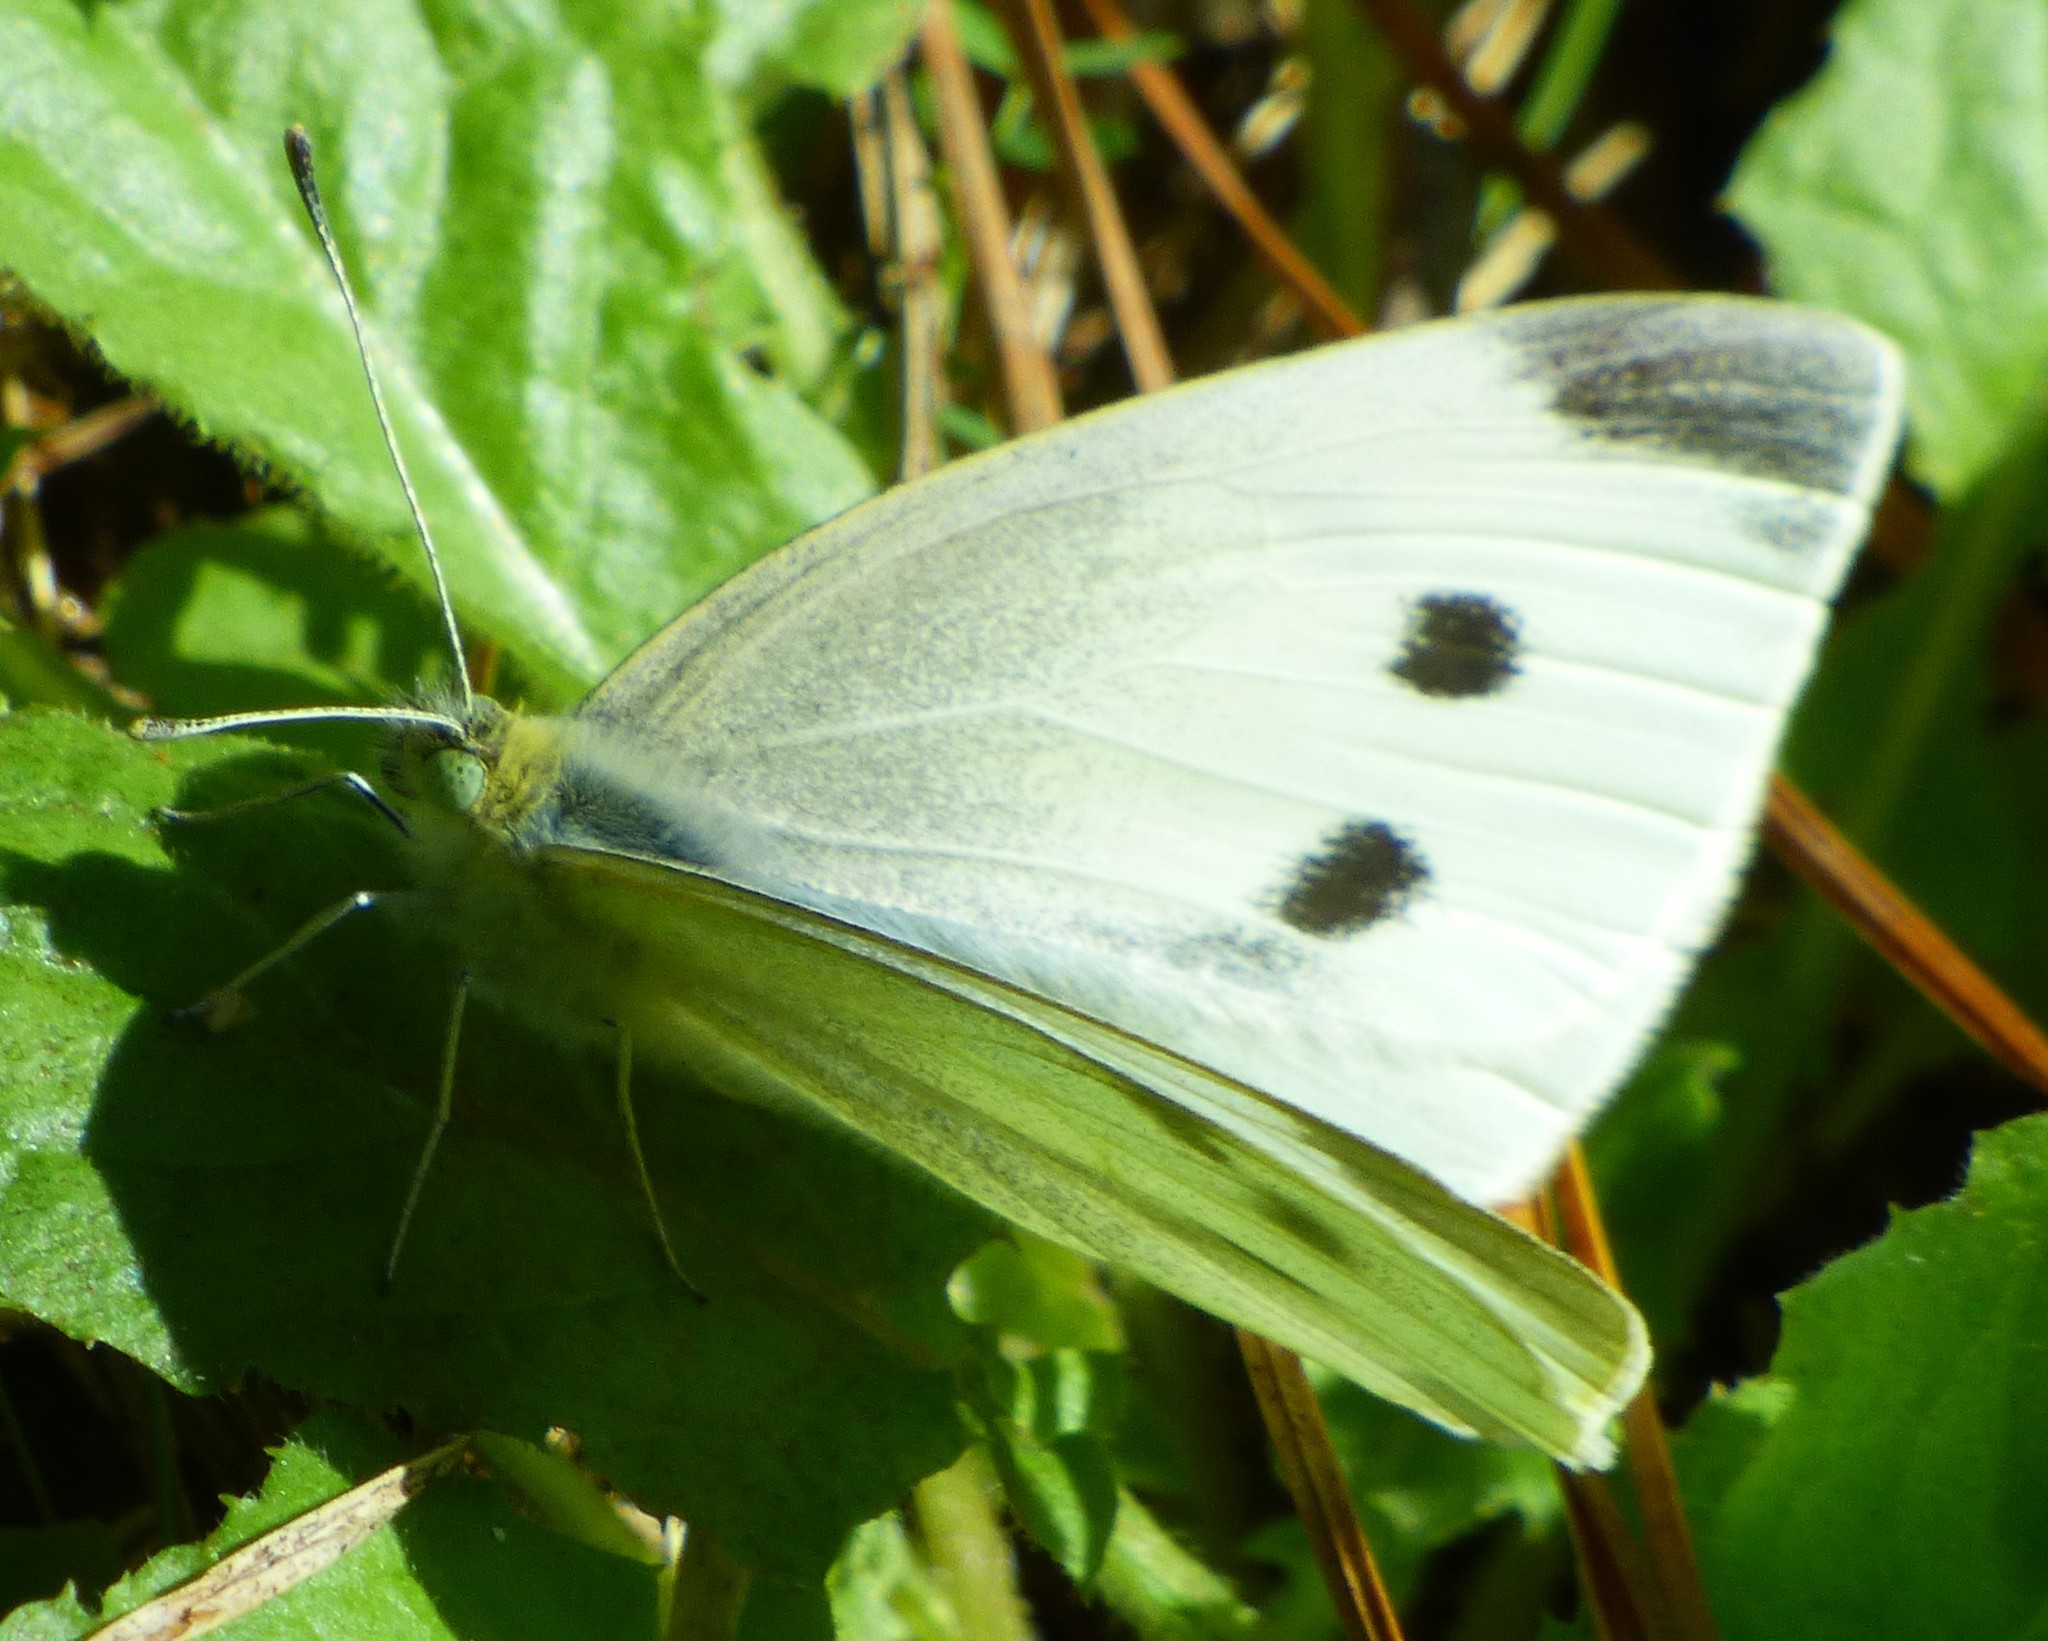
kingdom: Animalia
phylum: Arthropoda
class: Insecta
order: Lepidoptera
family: Pieridae
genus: Pieris
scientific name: Pieris rapae
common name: Small white
